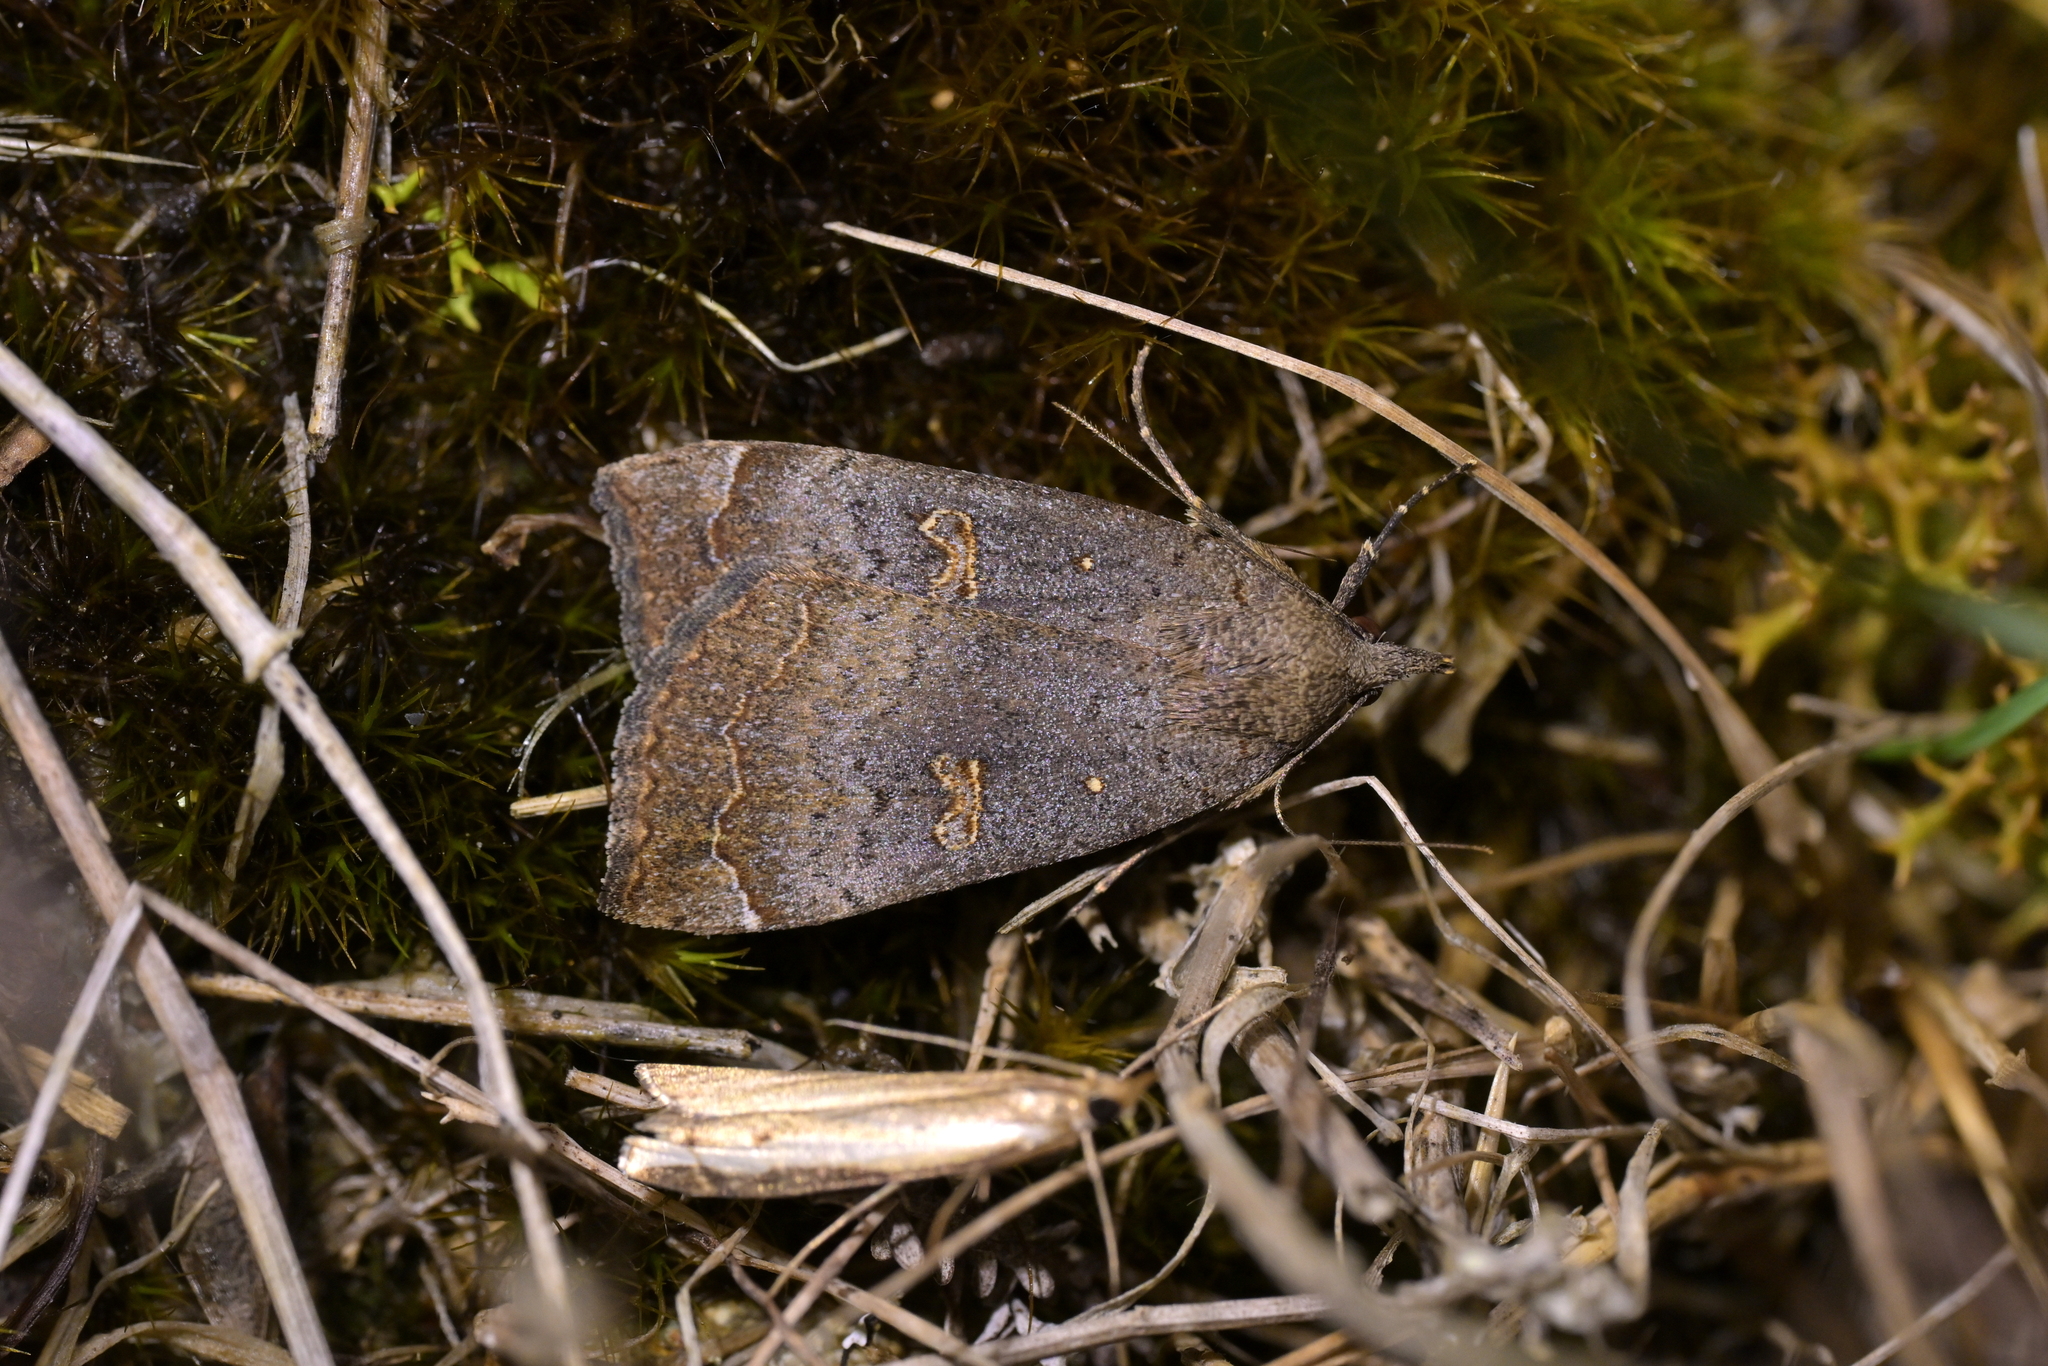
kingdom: Animalia
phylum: Arthropoda
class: Insecta
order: Lepidoptera
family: Erebidae
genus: Rhapsa
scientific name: Rhapsa scotosialis
